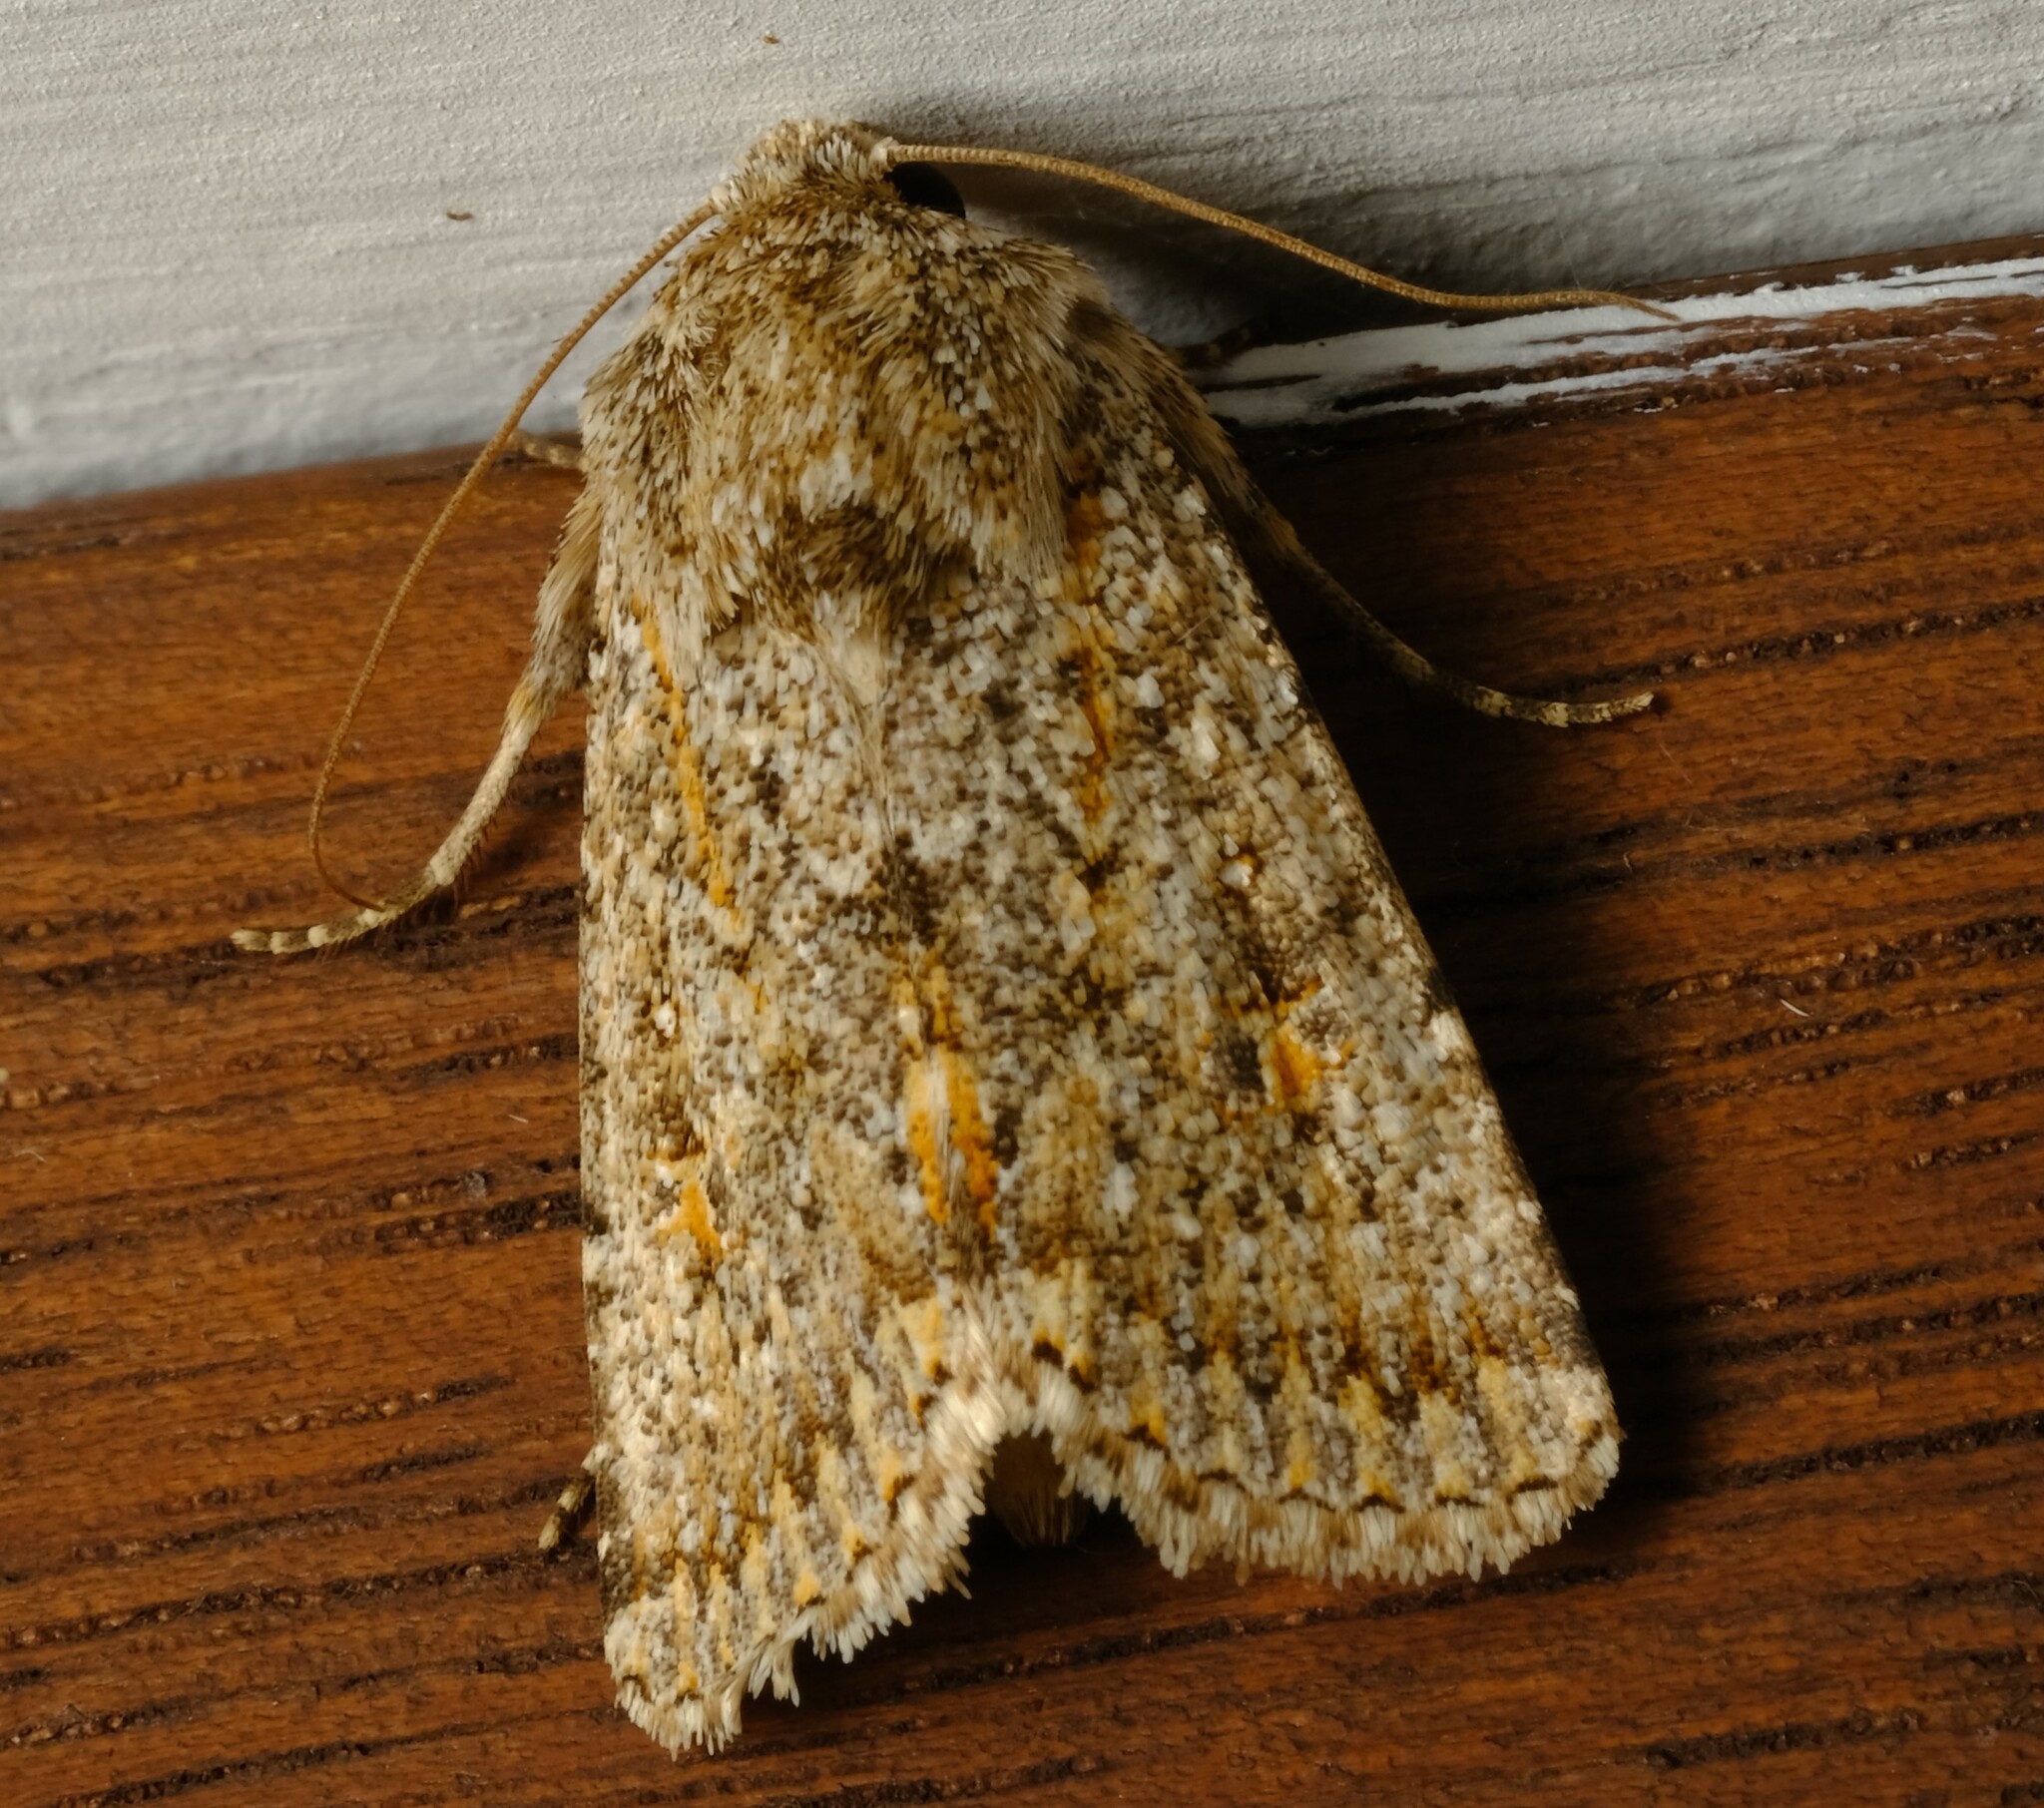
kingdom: Animalia
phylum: Arthropoda
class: Insecta
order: Lepidoptera
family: Noctuidae
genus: Proteuxoa
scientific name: Proteuxoa
